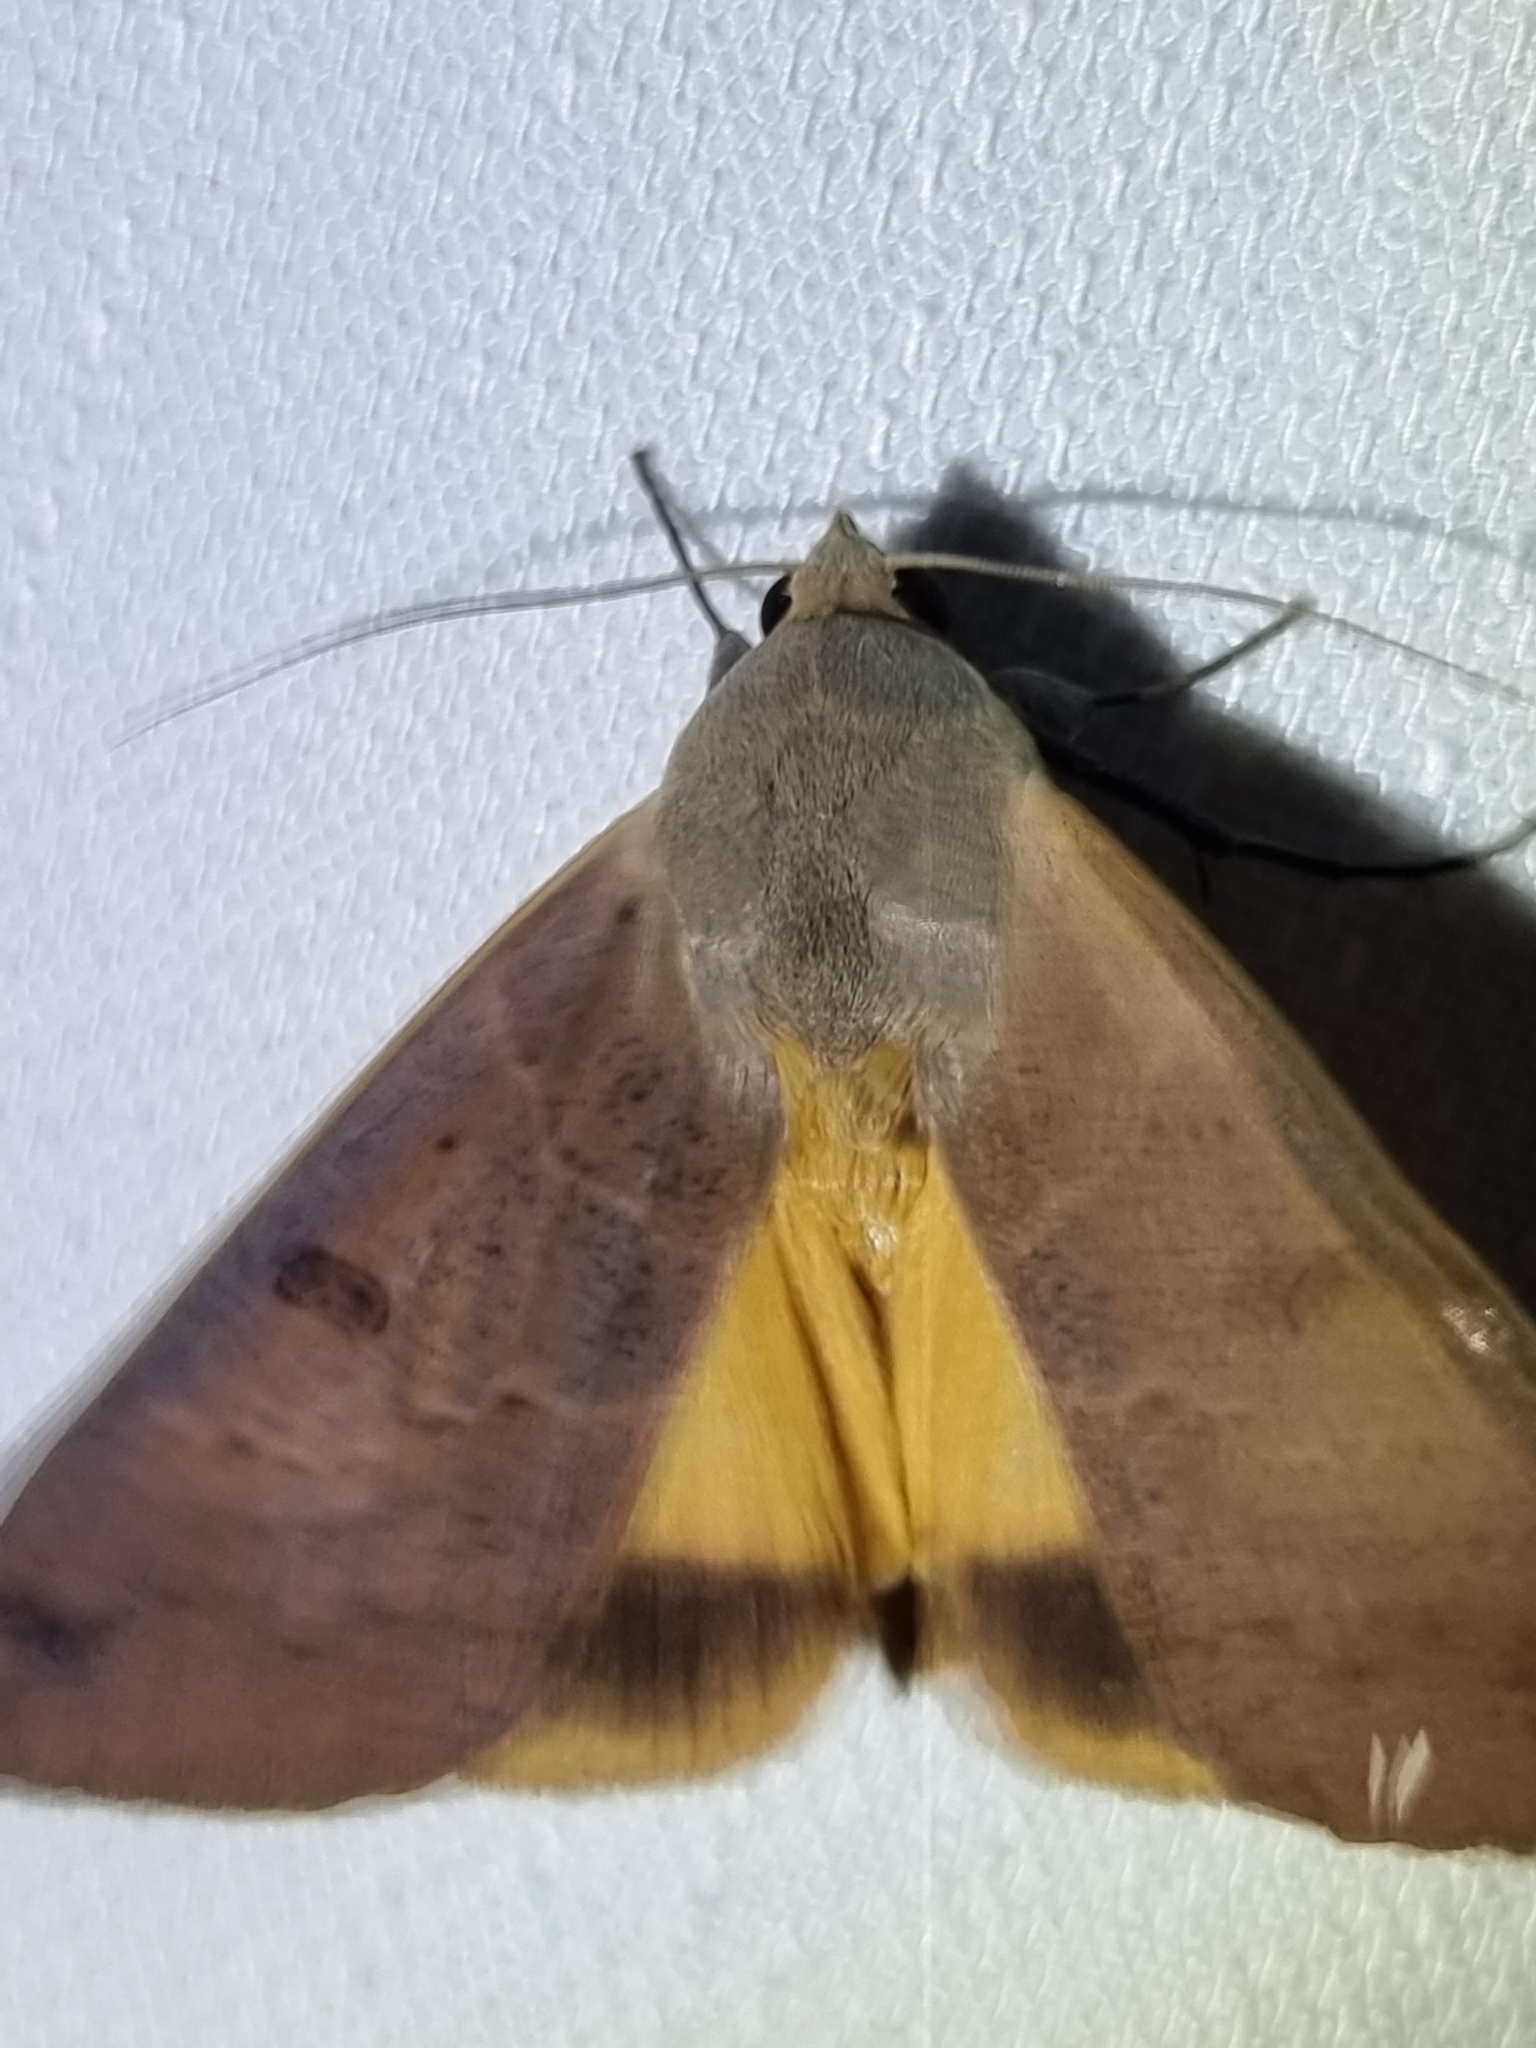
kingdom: Animalia
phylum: Arthropoda
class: Insecta
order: Lepidoptera
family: Erebidae
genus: Ophiusa
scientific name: Ophiusa disjungens
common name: Moth
